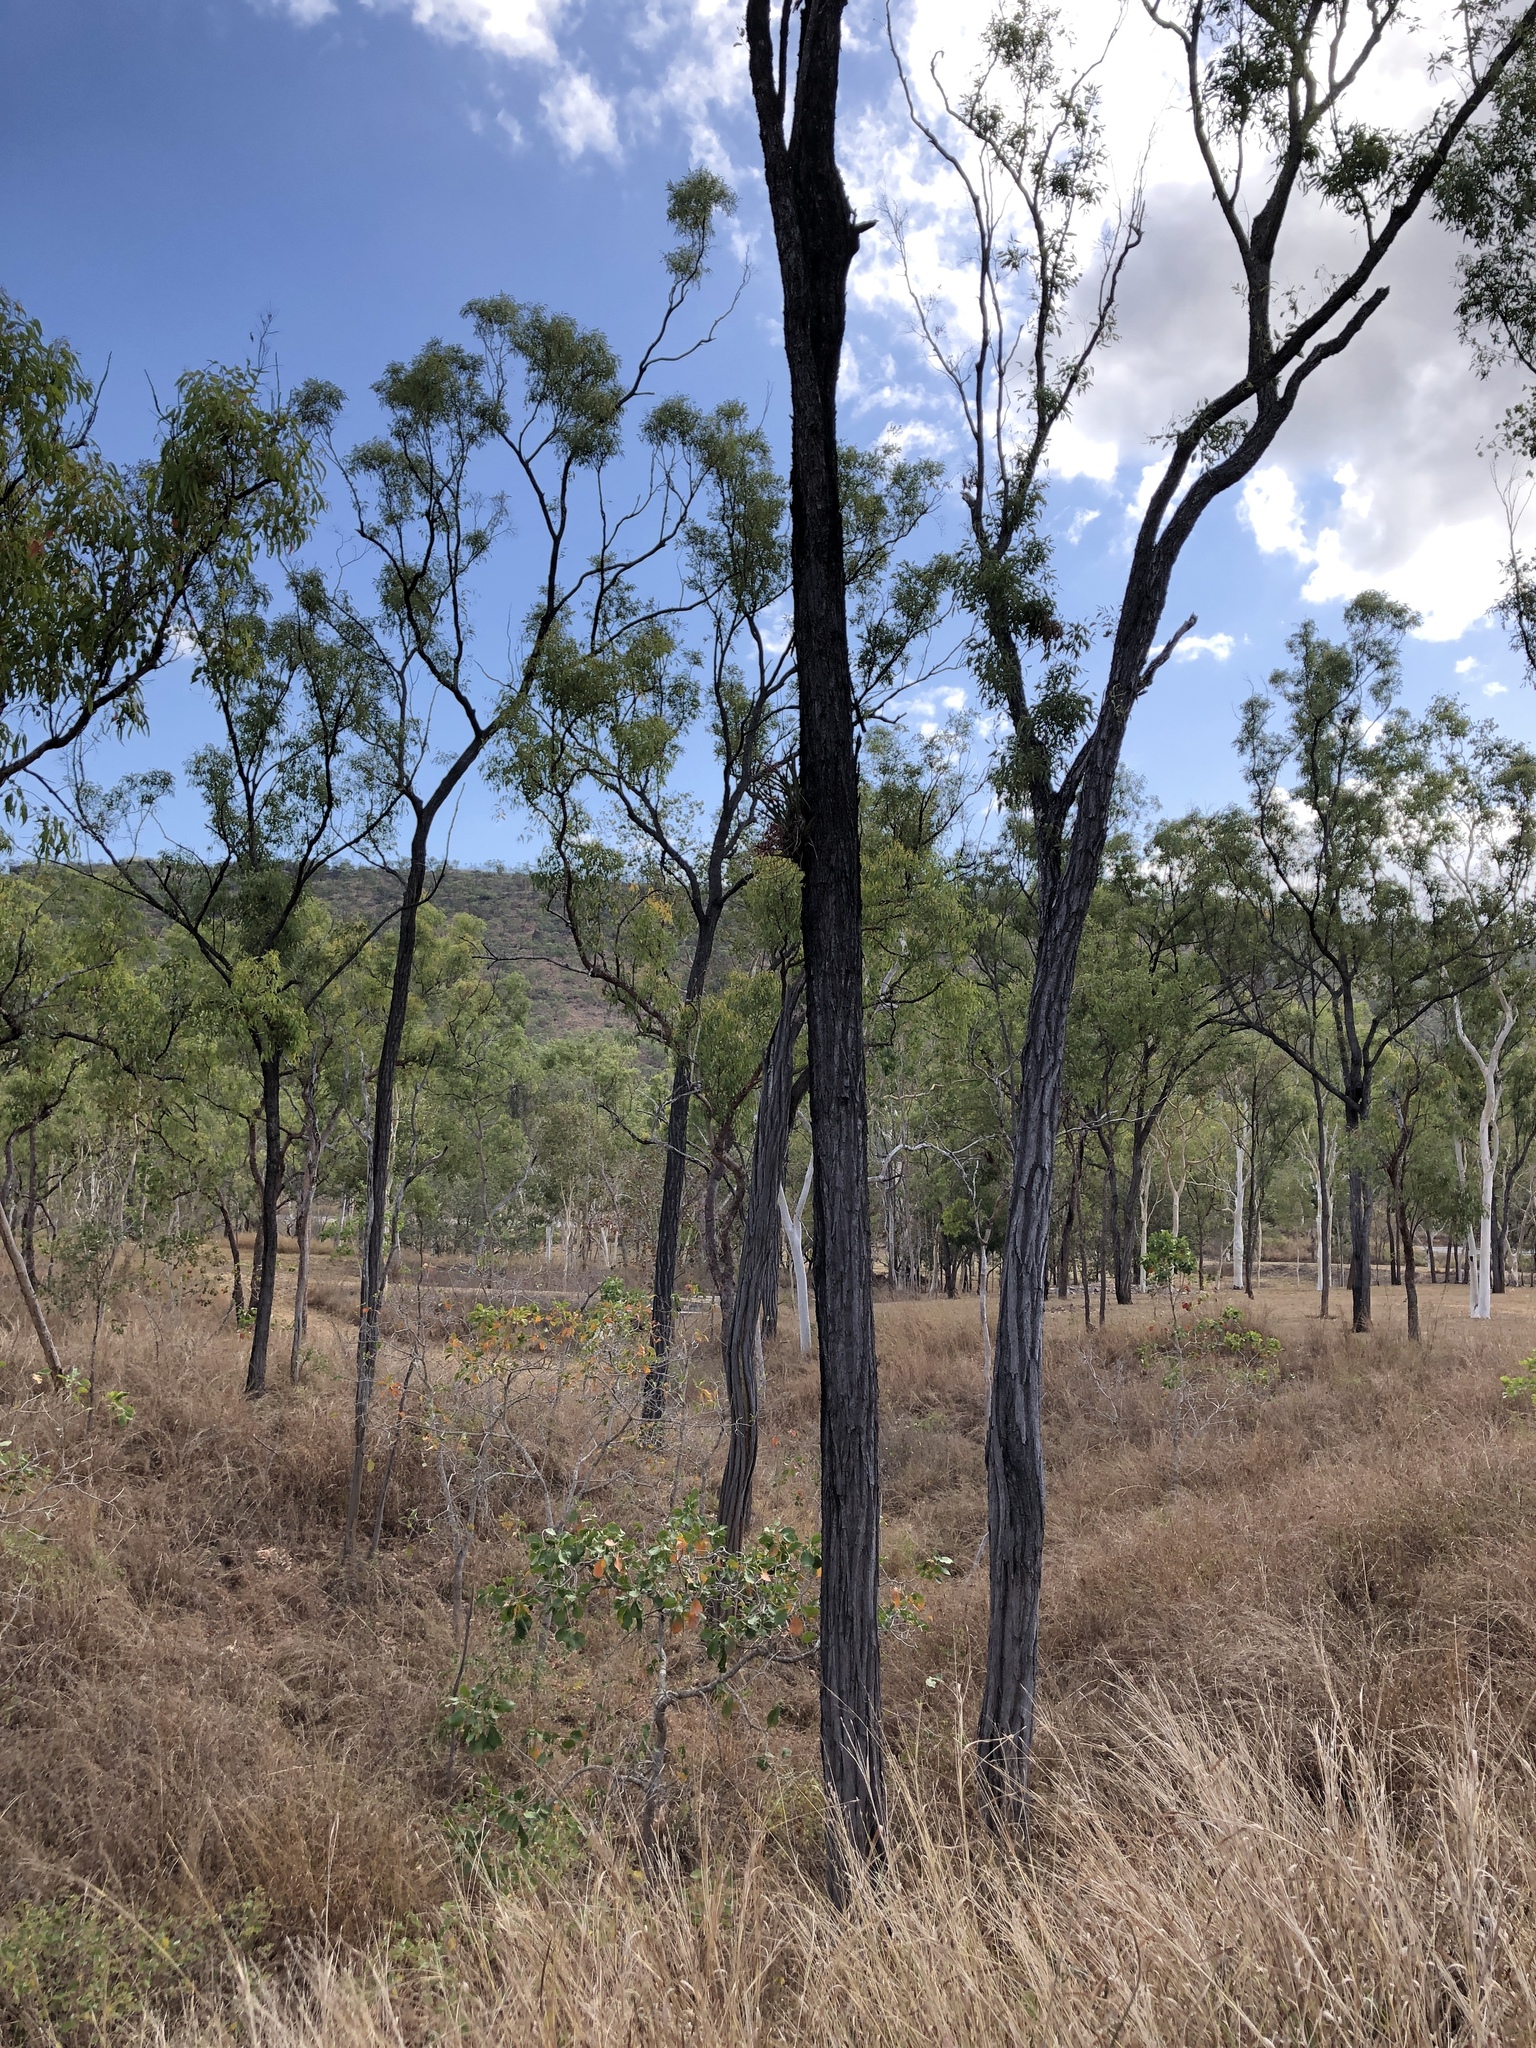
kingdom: Plantae
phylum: Tracheophyta
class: Liliopsida
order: Asparagales
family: Orchidaceae
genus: Cymbidium
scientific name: Cymbidium canaliculatum
